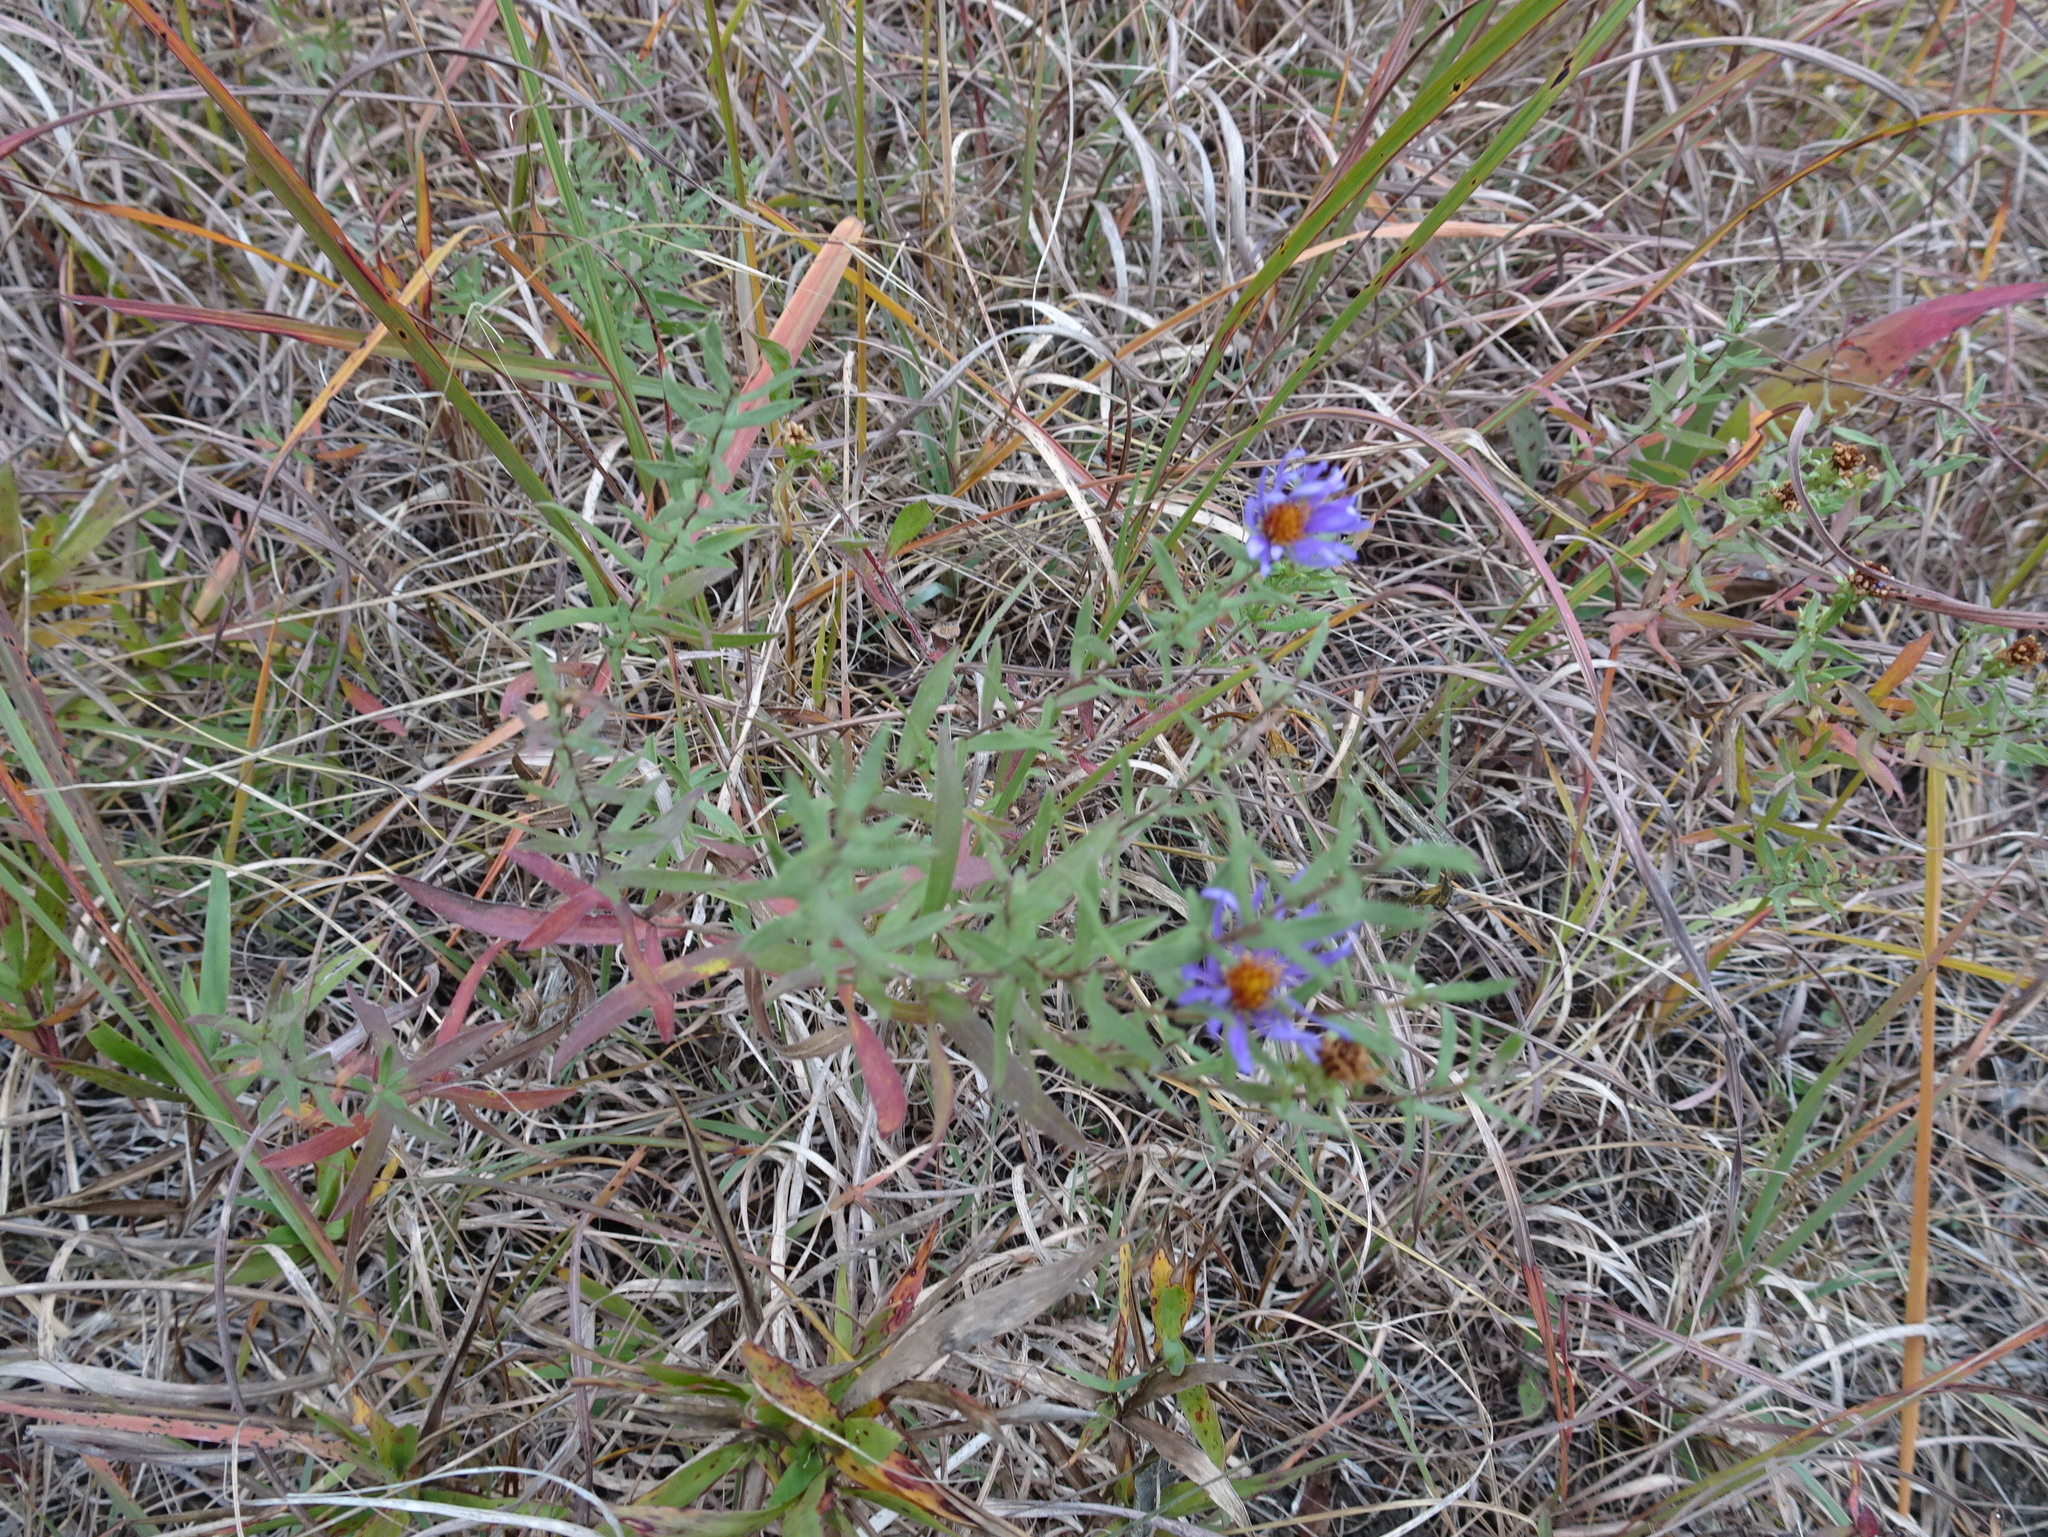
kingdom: Plantae
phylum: Tracheophyta
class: Magnoliopsida
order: Asterales
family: Asteraceae
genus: Symphyotrichum
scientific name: Symphyotrichum oblongifolium
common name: Aromatic aster
